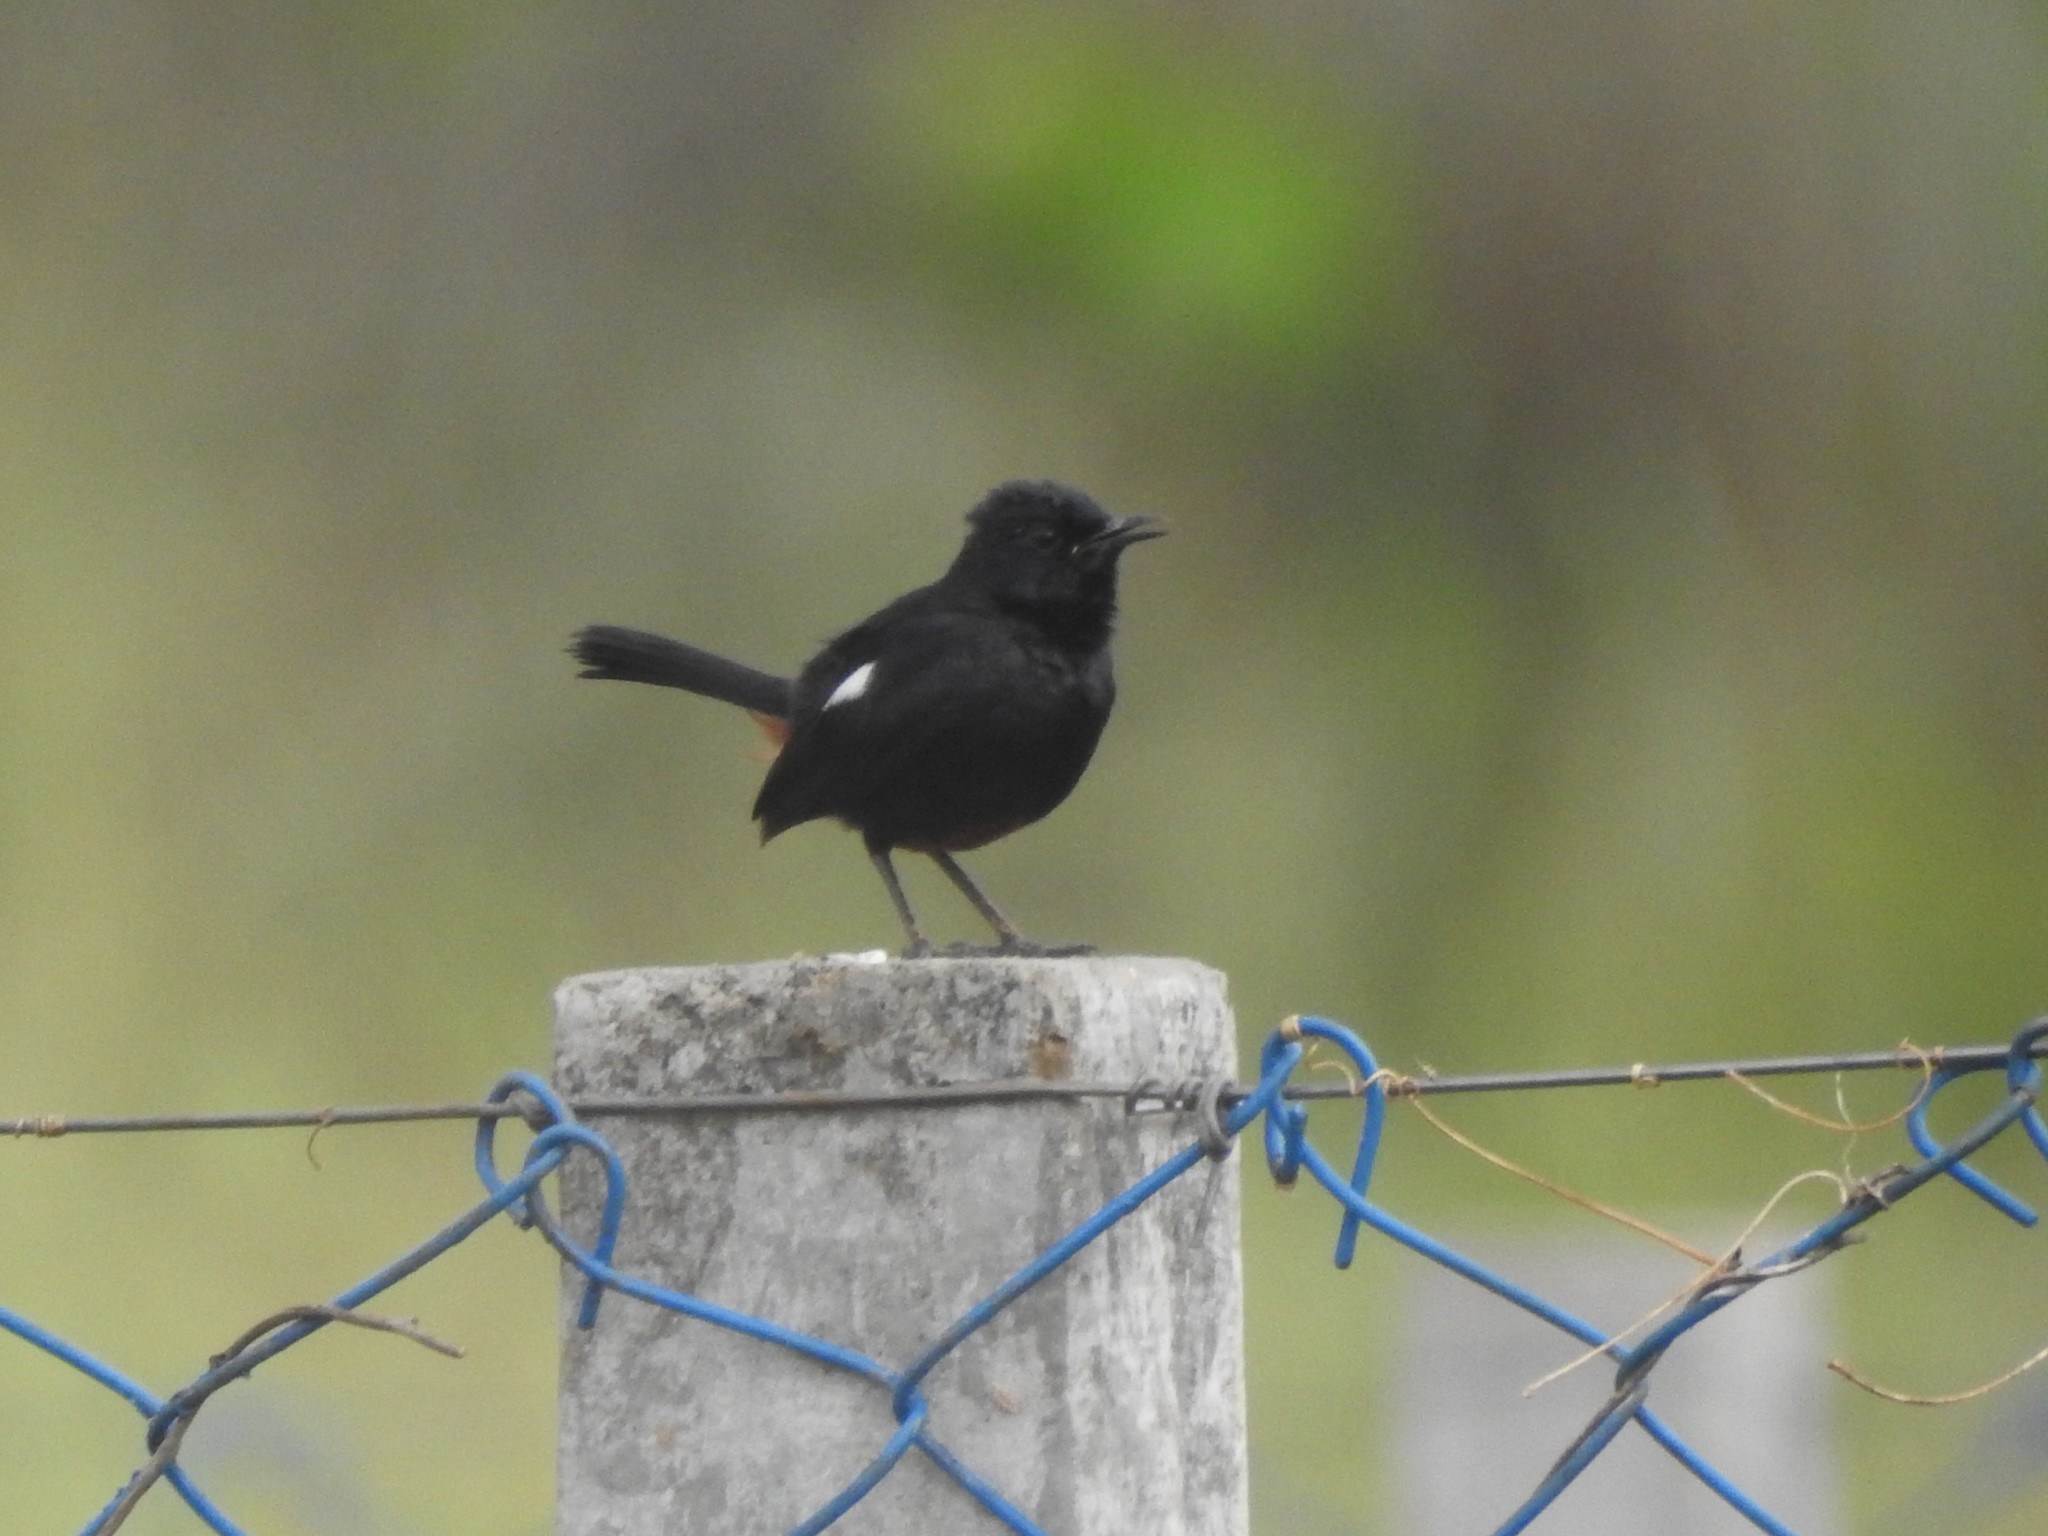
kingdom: Animalia
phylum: Chordata
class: Aves
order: Passeriformes
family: Muscicapidae
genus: Saxicoloides
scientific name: Saxicoloides fulicatus
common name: Indian robin
